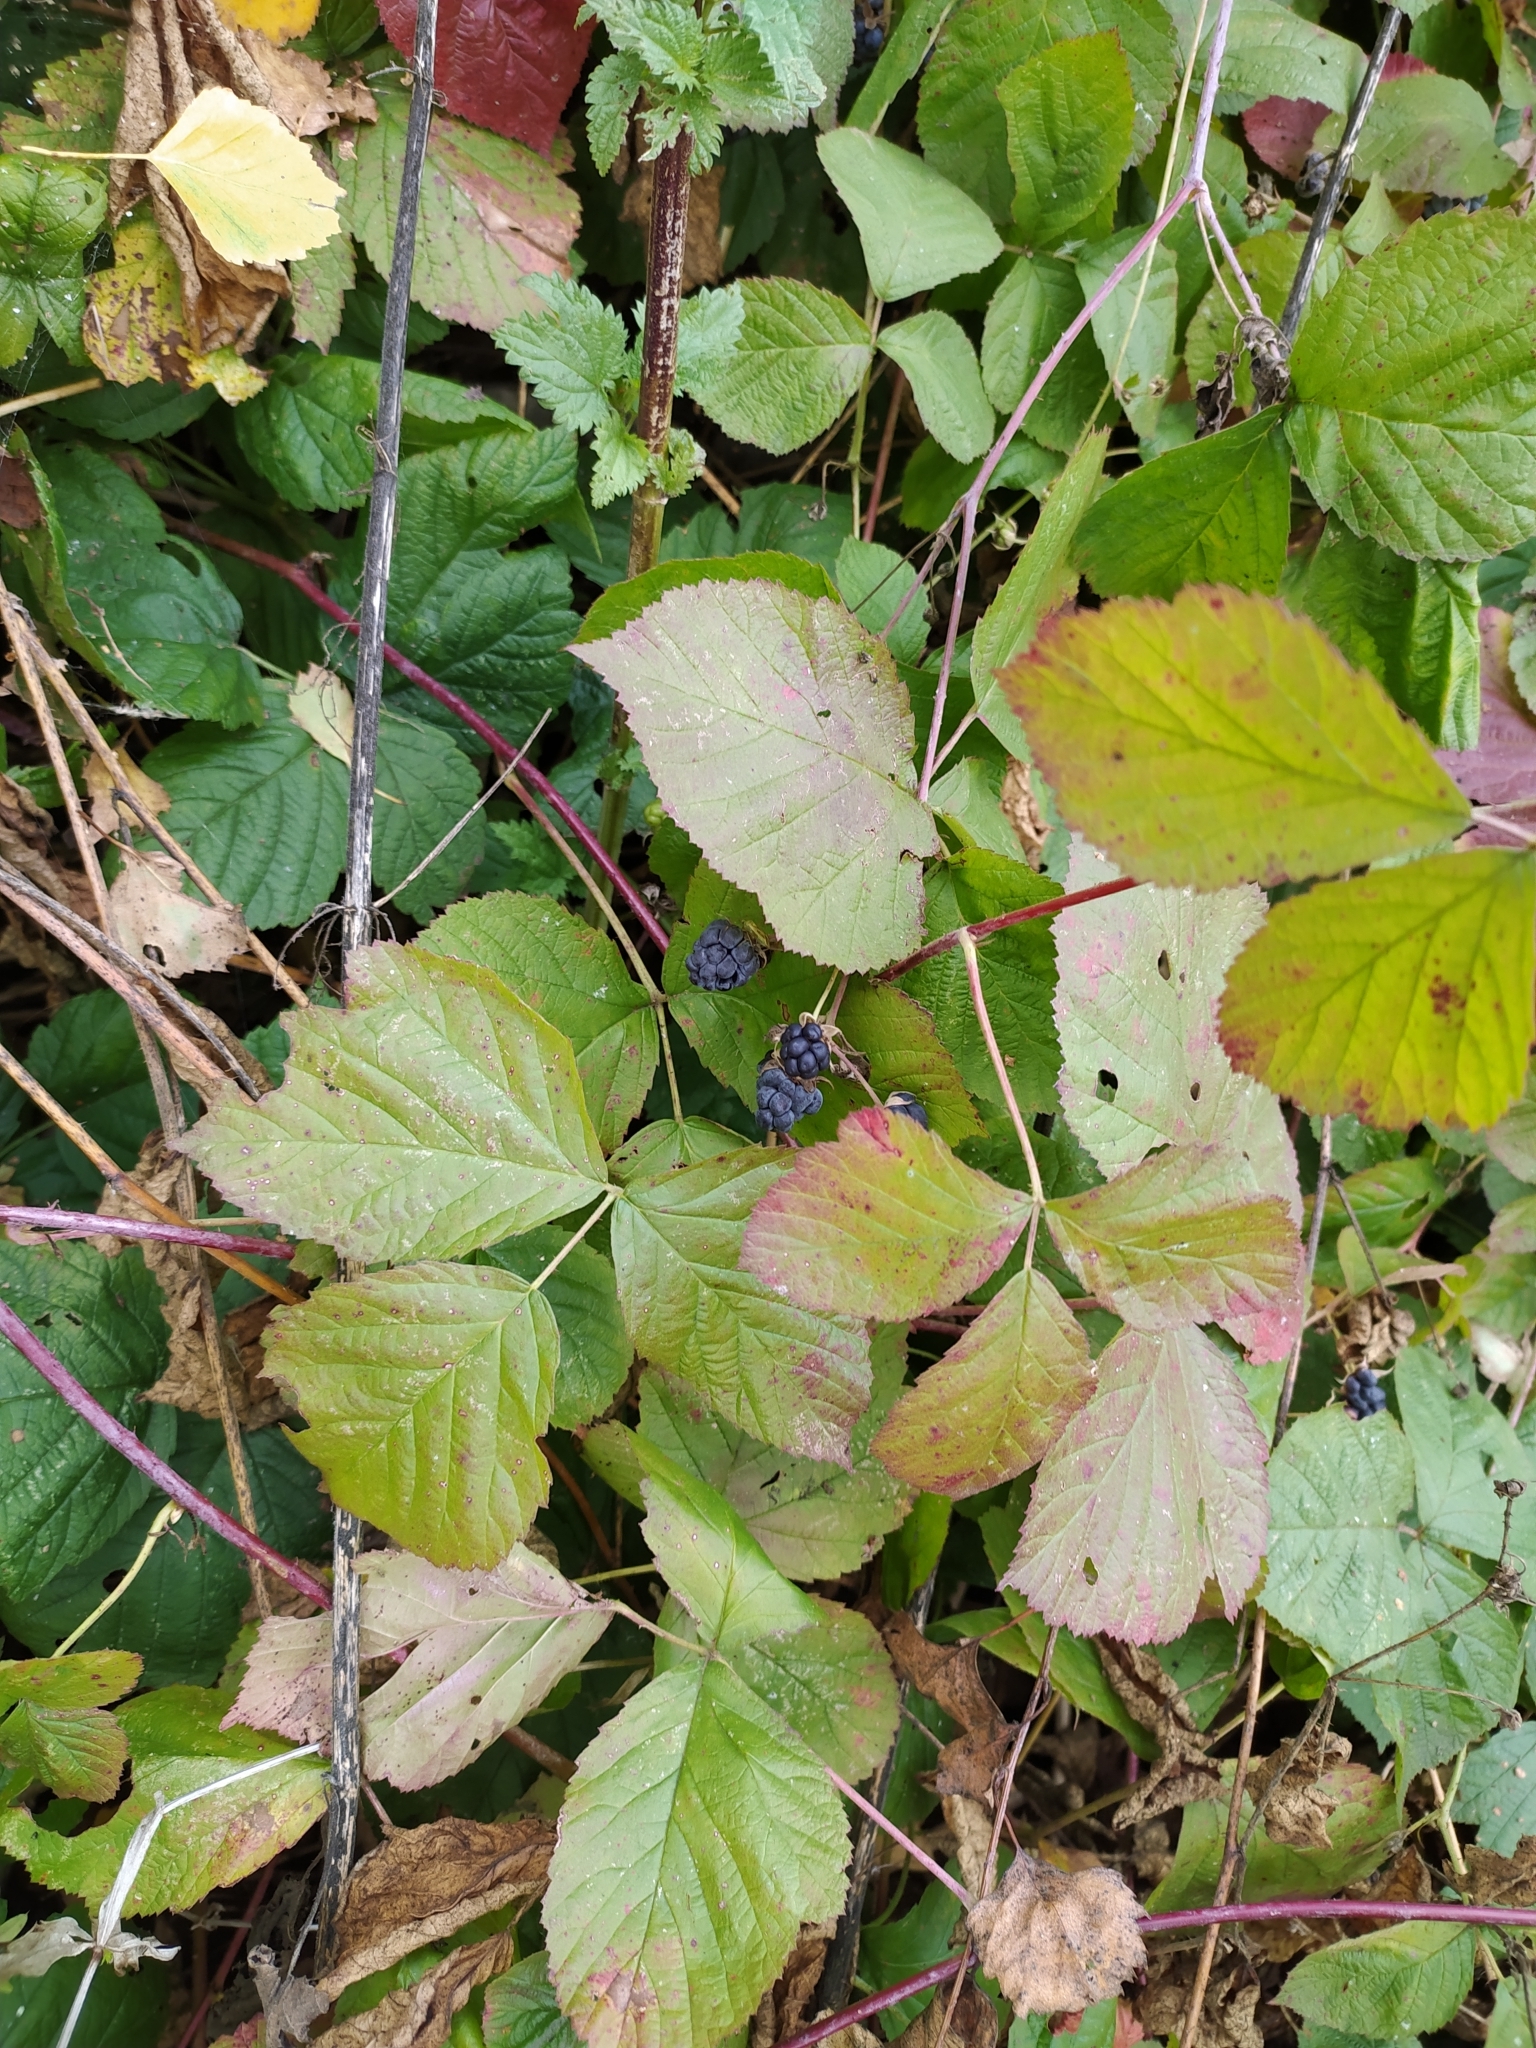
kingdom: Plantae
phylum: Tracheophyta
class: Magnoliopsida
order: Rosales
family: Rosaceae
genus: Rubus
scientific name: Rubus caesius
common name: Dewberry
